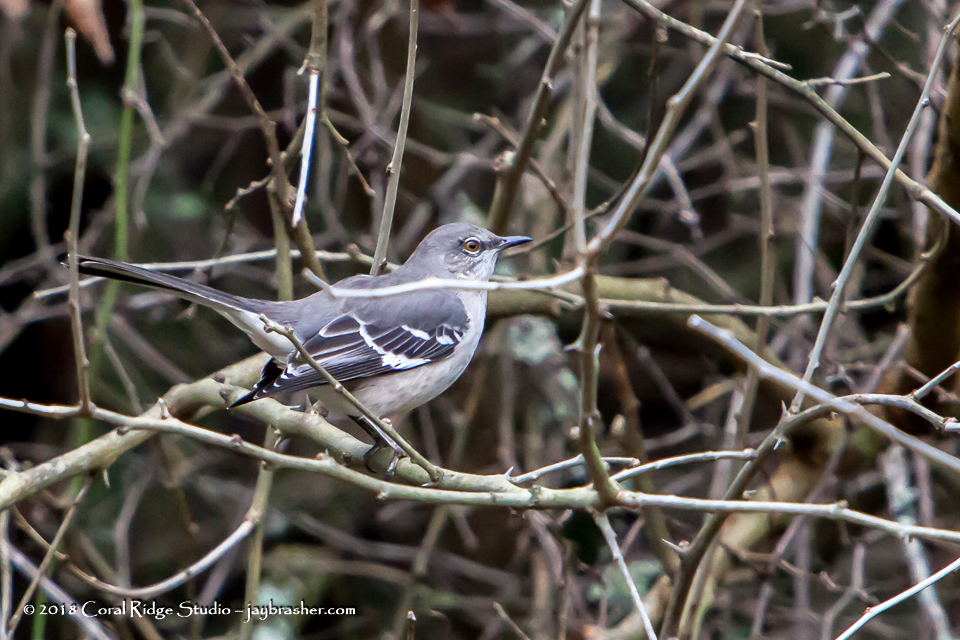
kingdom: Animalia
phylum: Chordata
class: Aves
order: Passeriformes
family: Mimidae
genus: Mimus
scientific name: Mimus polyglottos
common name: Northern mockingbird
